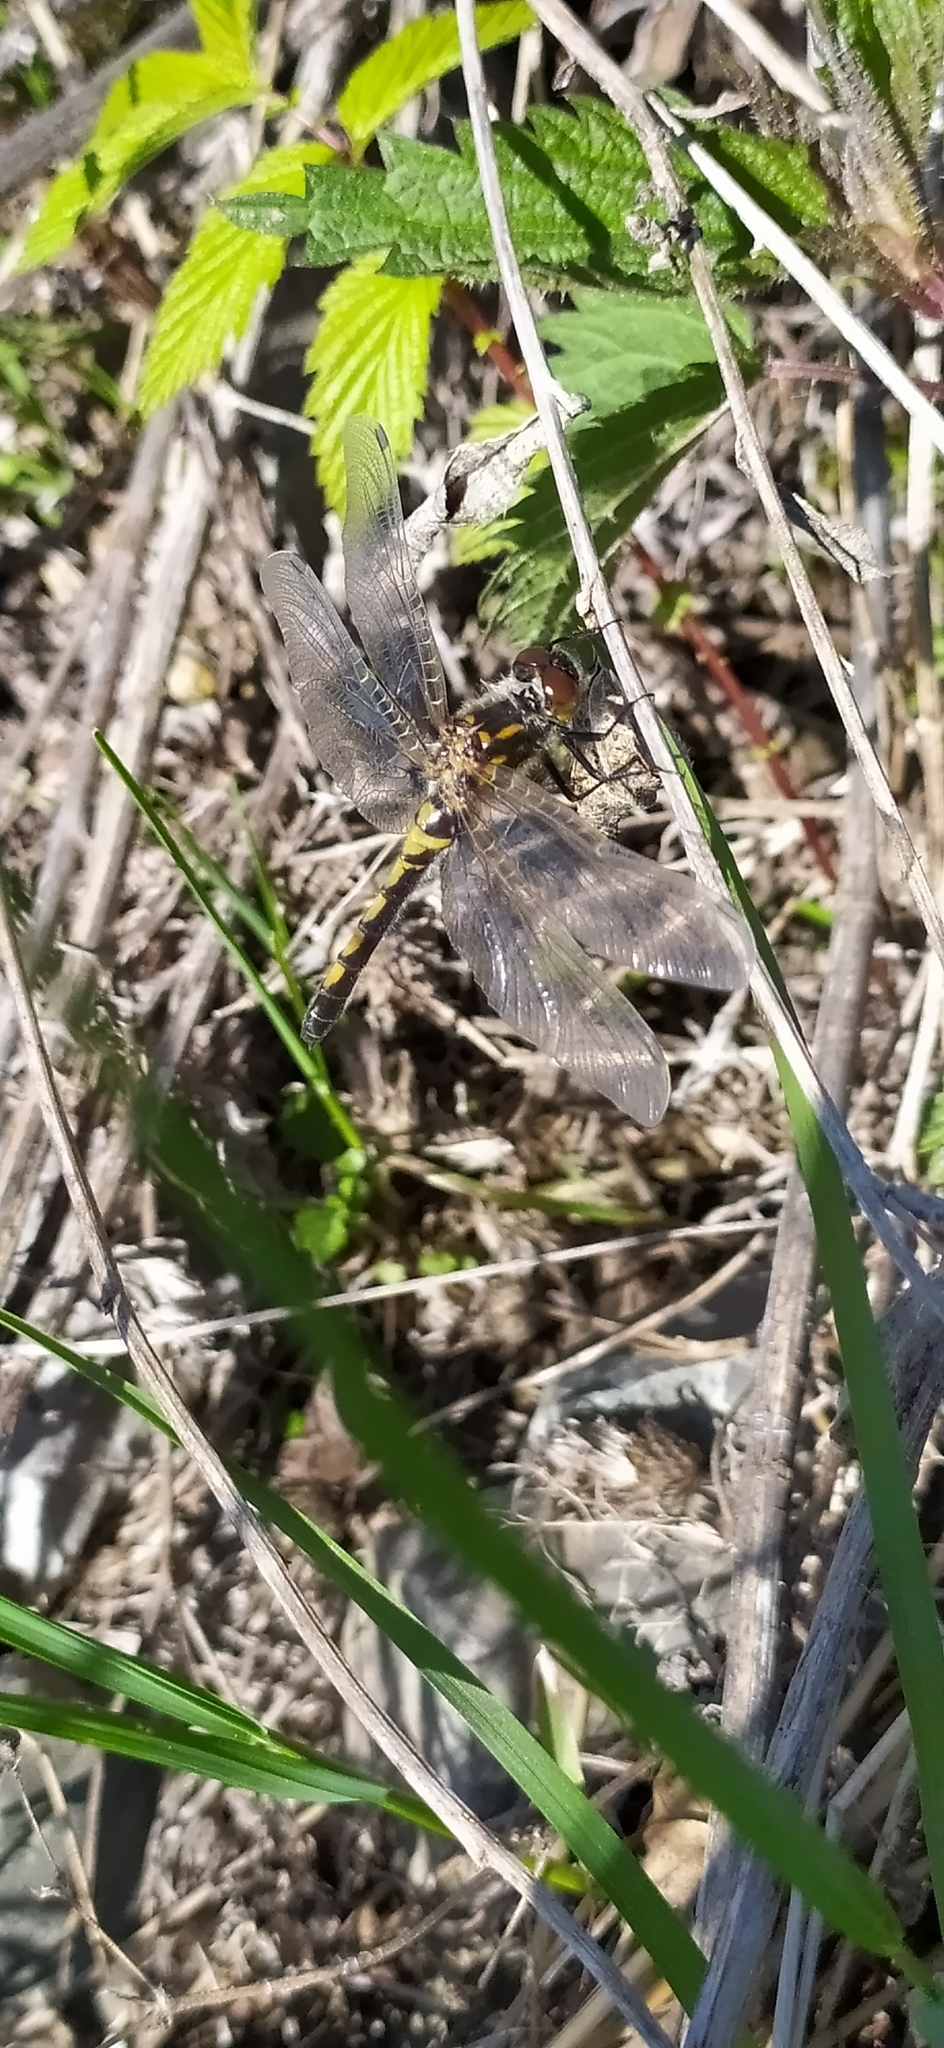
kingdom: Animalia
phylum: Arthropoda
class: Insecta
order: Odonata
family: Libellulidae
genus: Leucorrhinia
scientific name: Leucorrhinia rubicunda
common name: Ruby whiteface
